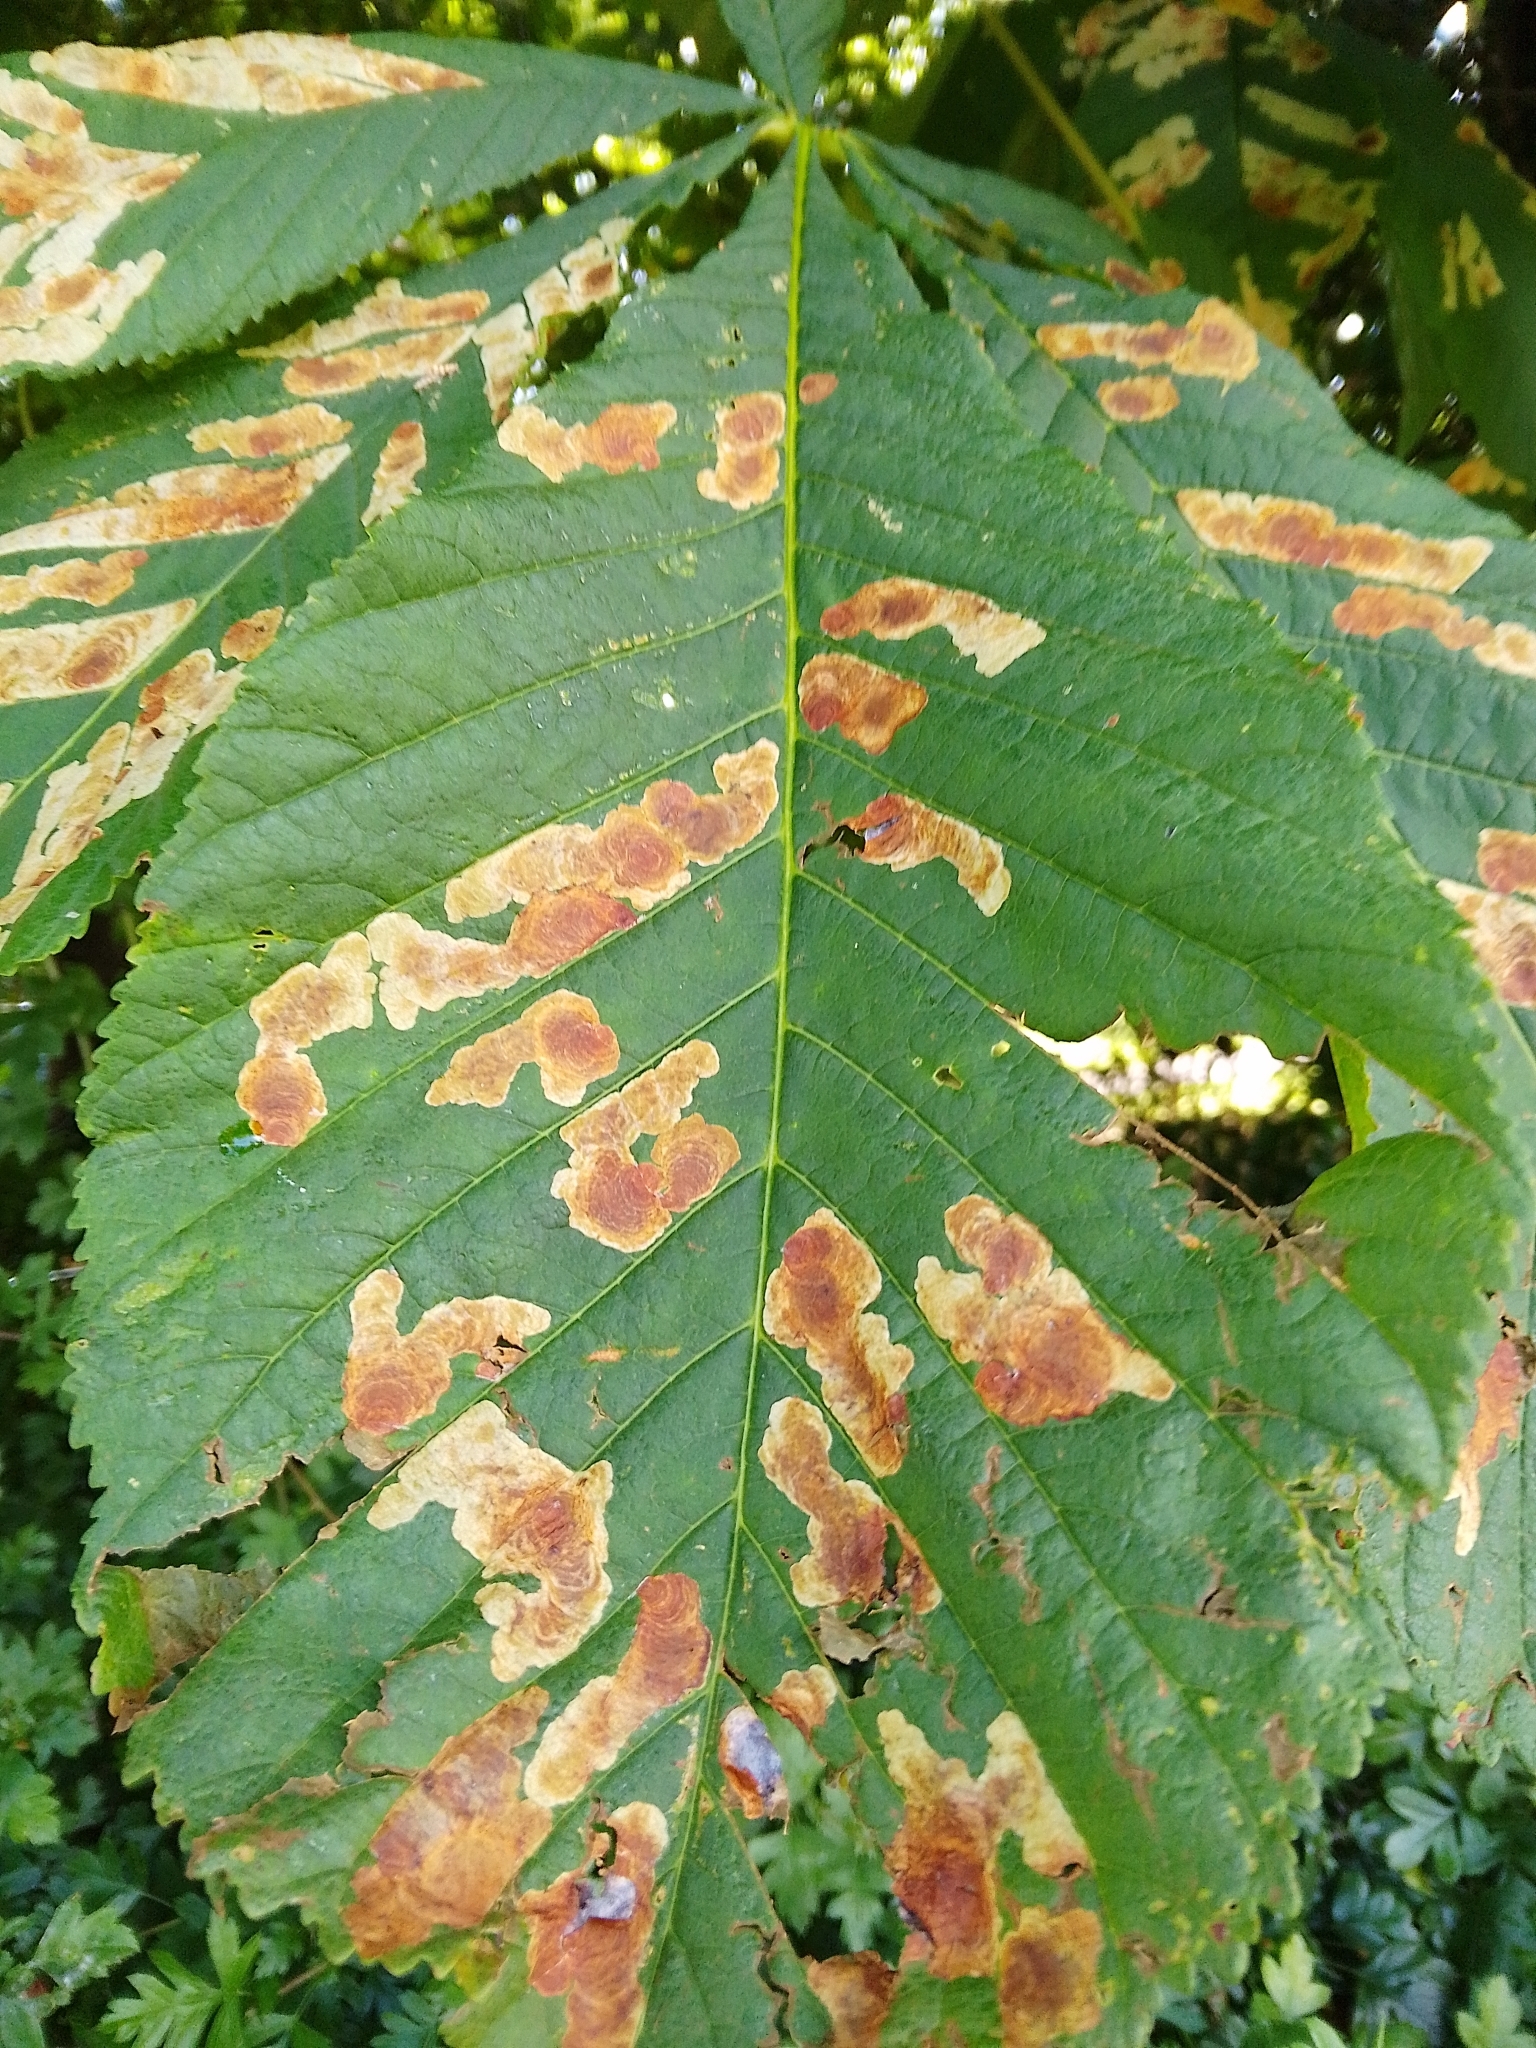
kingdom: Animalia
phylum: Arthropoda
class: Insecta
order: Lepidoptera
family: Gracillariidae
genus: Cameraria
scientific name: Cameraria ohridella
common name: Horse-chestnut leaf-miner
